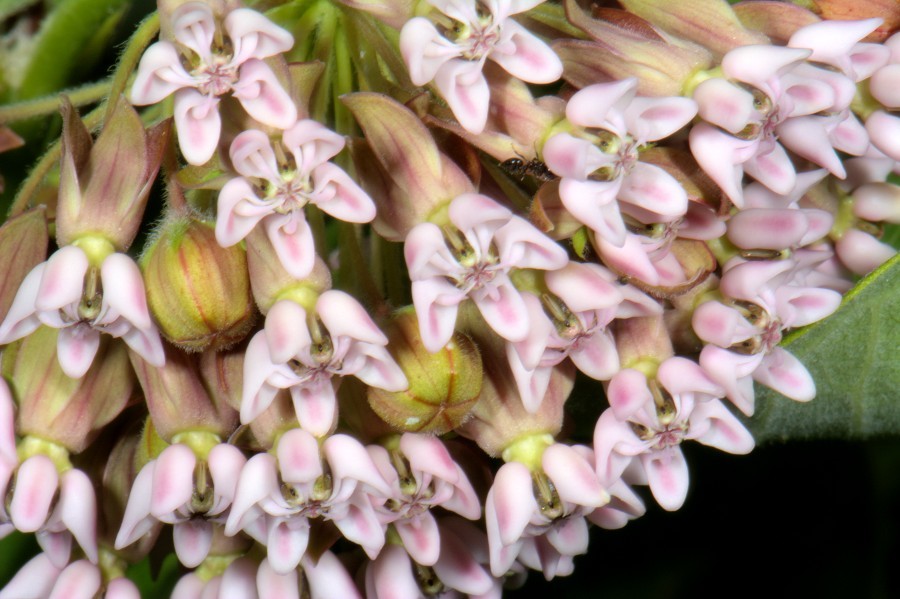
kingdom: Plantae
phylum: Tracheophyta
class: Magnoliopsida
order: Gentianales
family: Apocynaceae
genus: Asclepias
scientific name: Asclepias syriaca
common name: Common milkweed
